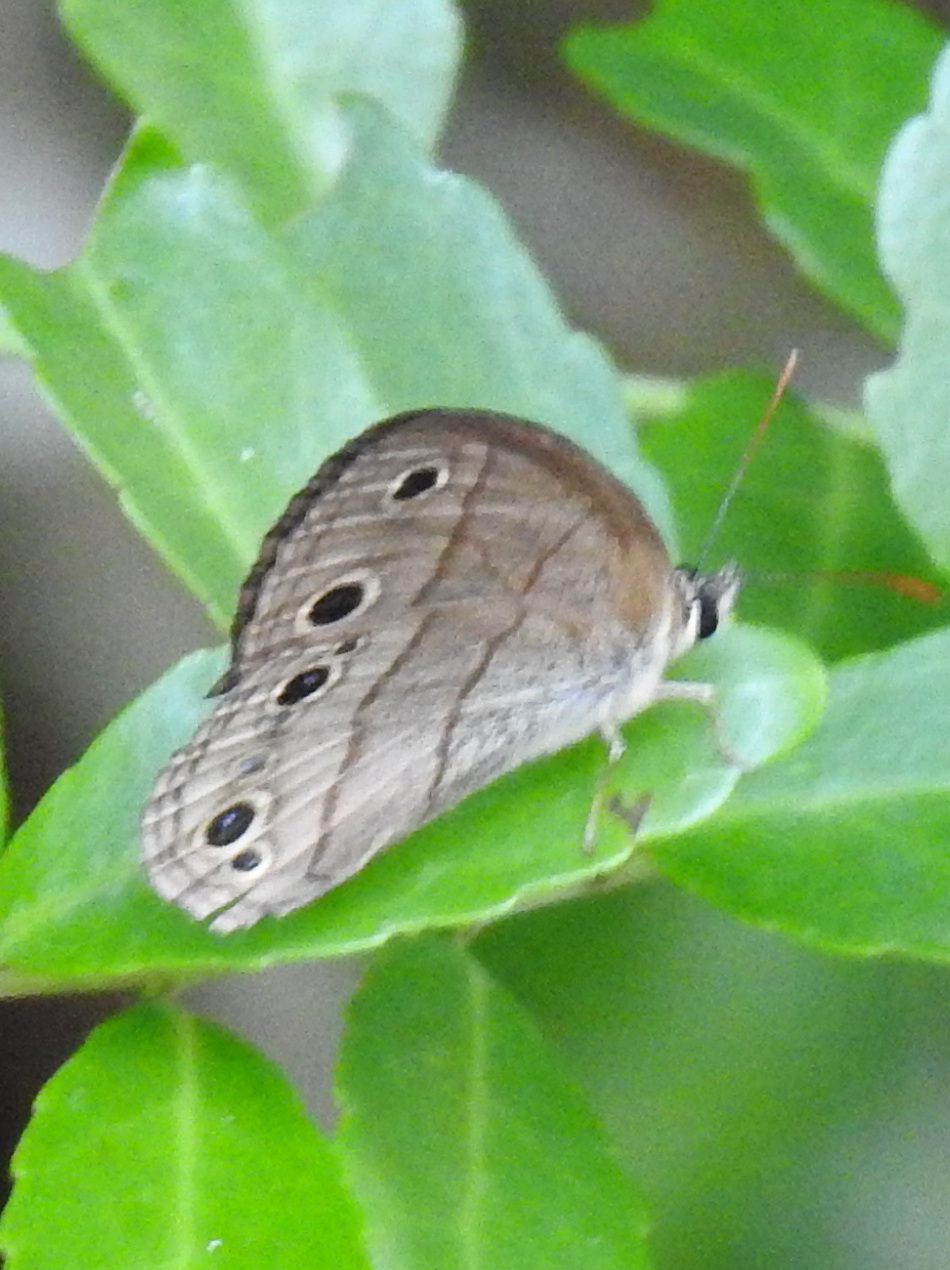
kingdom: Animalia
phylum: Arthropoda
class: Insecta
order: Lepidoptera
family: Nymphalidae
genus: Euptychia
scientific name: Euptychia cymela
